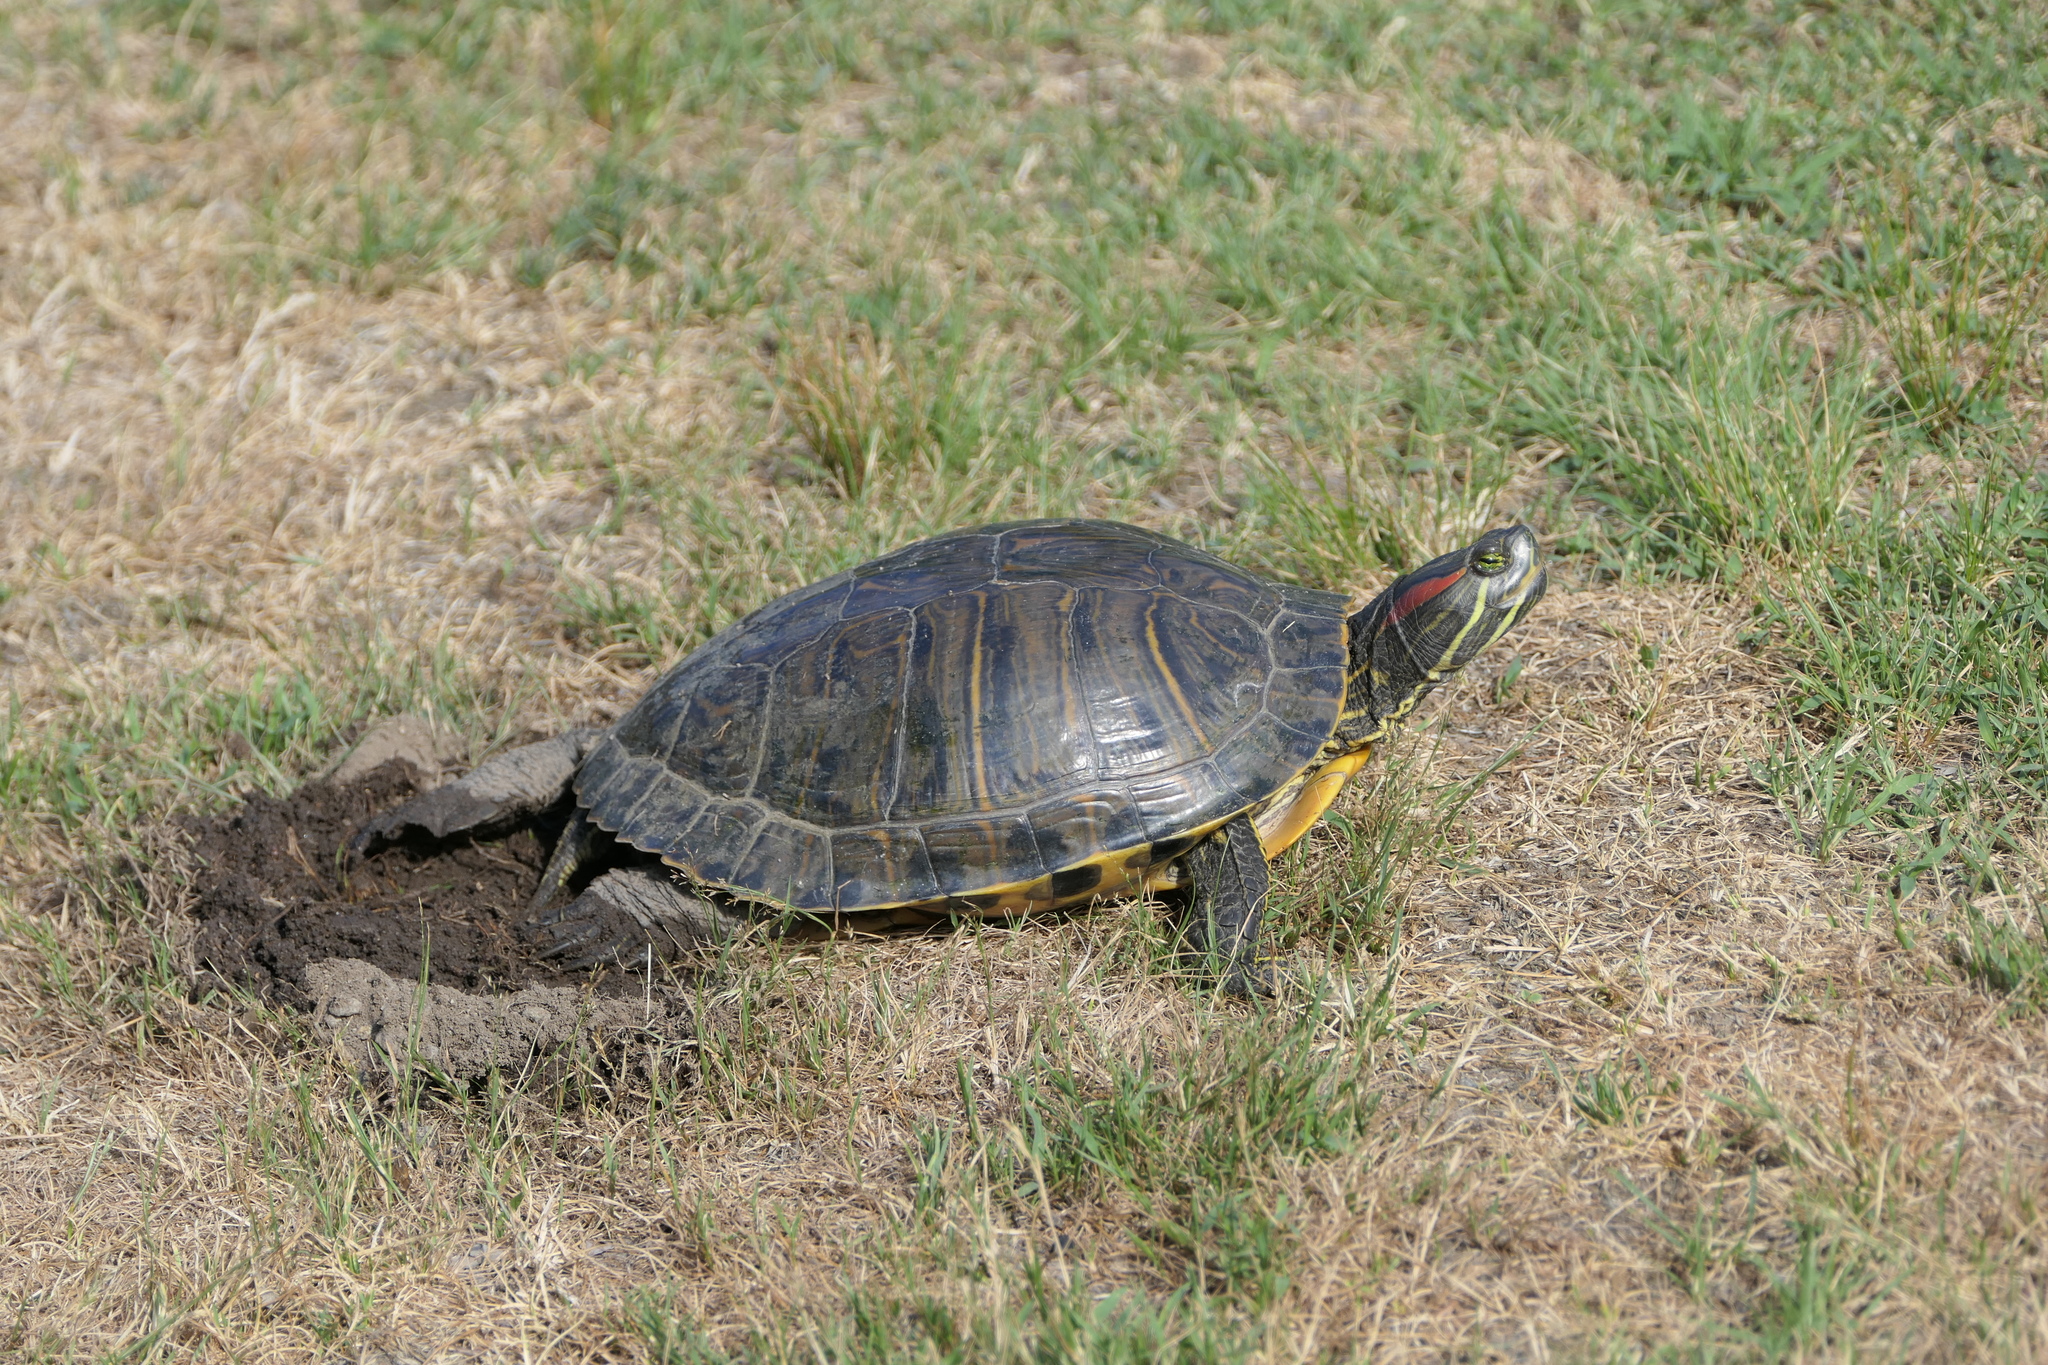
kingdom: Animalia
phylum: Chordata
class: Testudines
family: Emydidae
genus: Trachemys
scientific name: Trachemys scripta
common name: Slider
